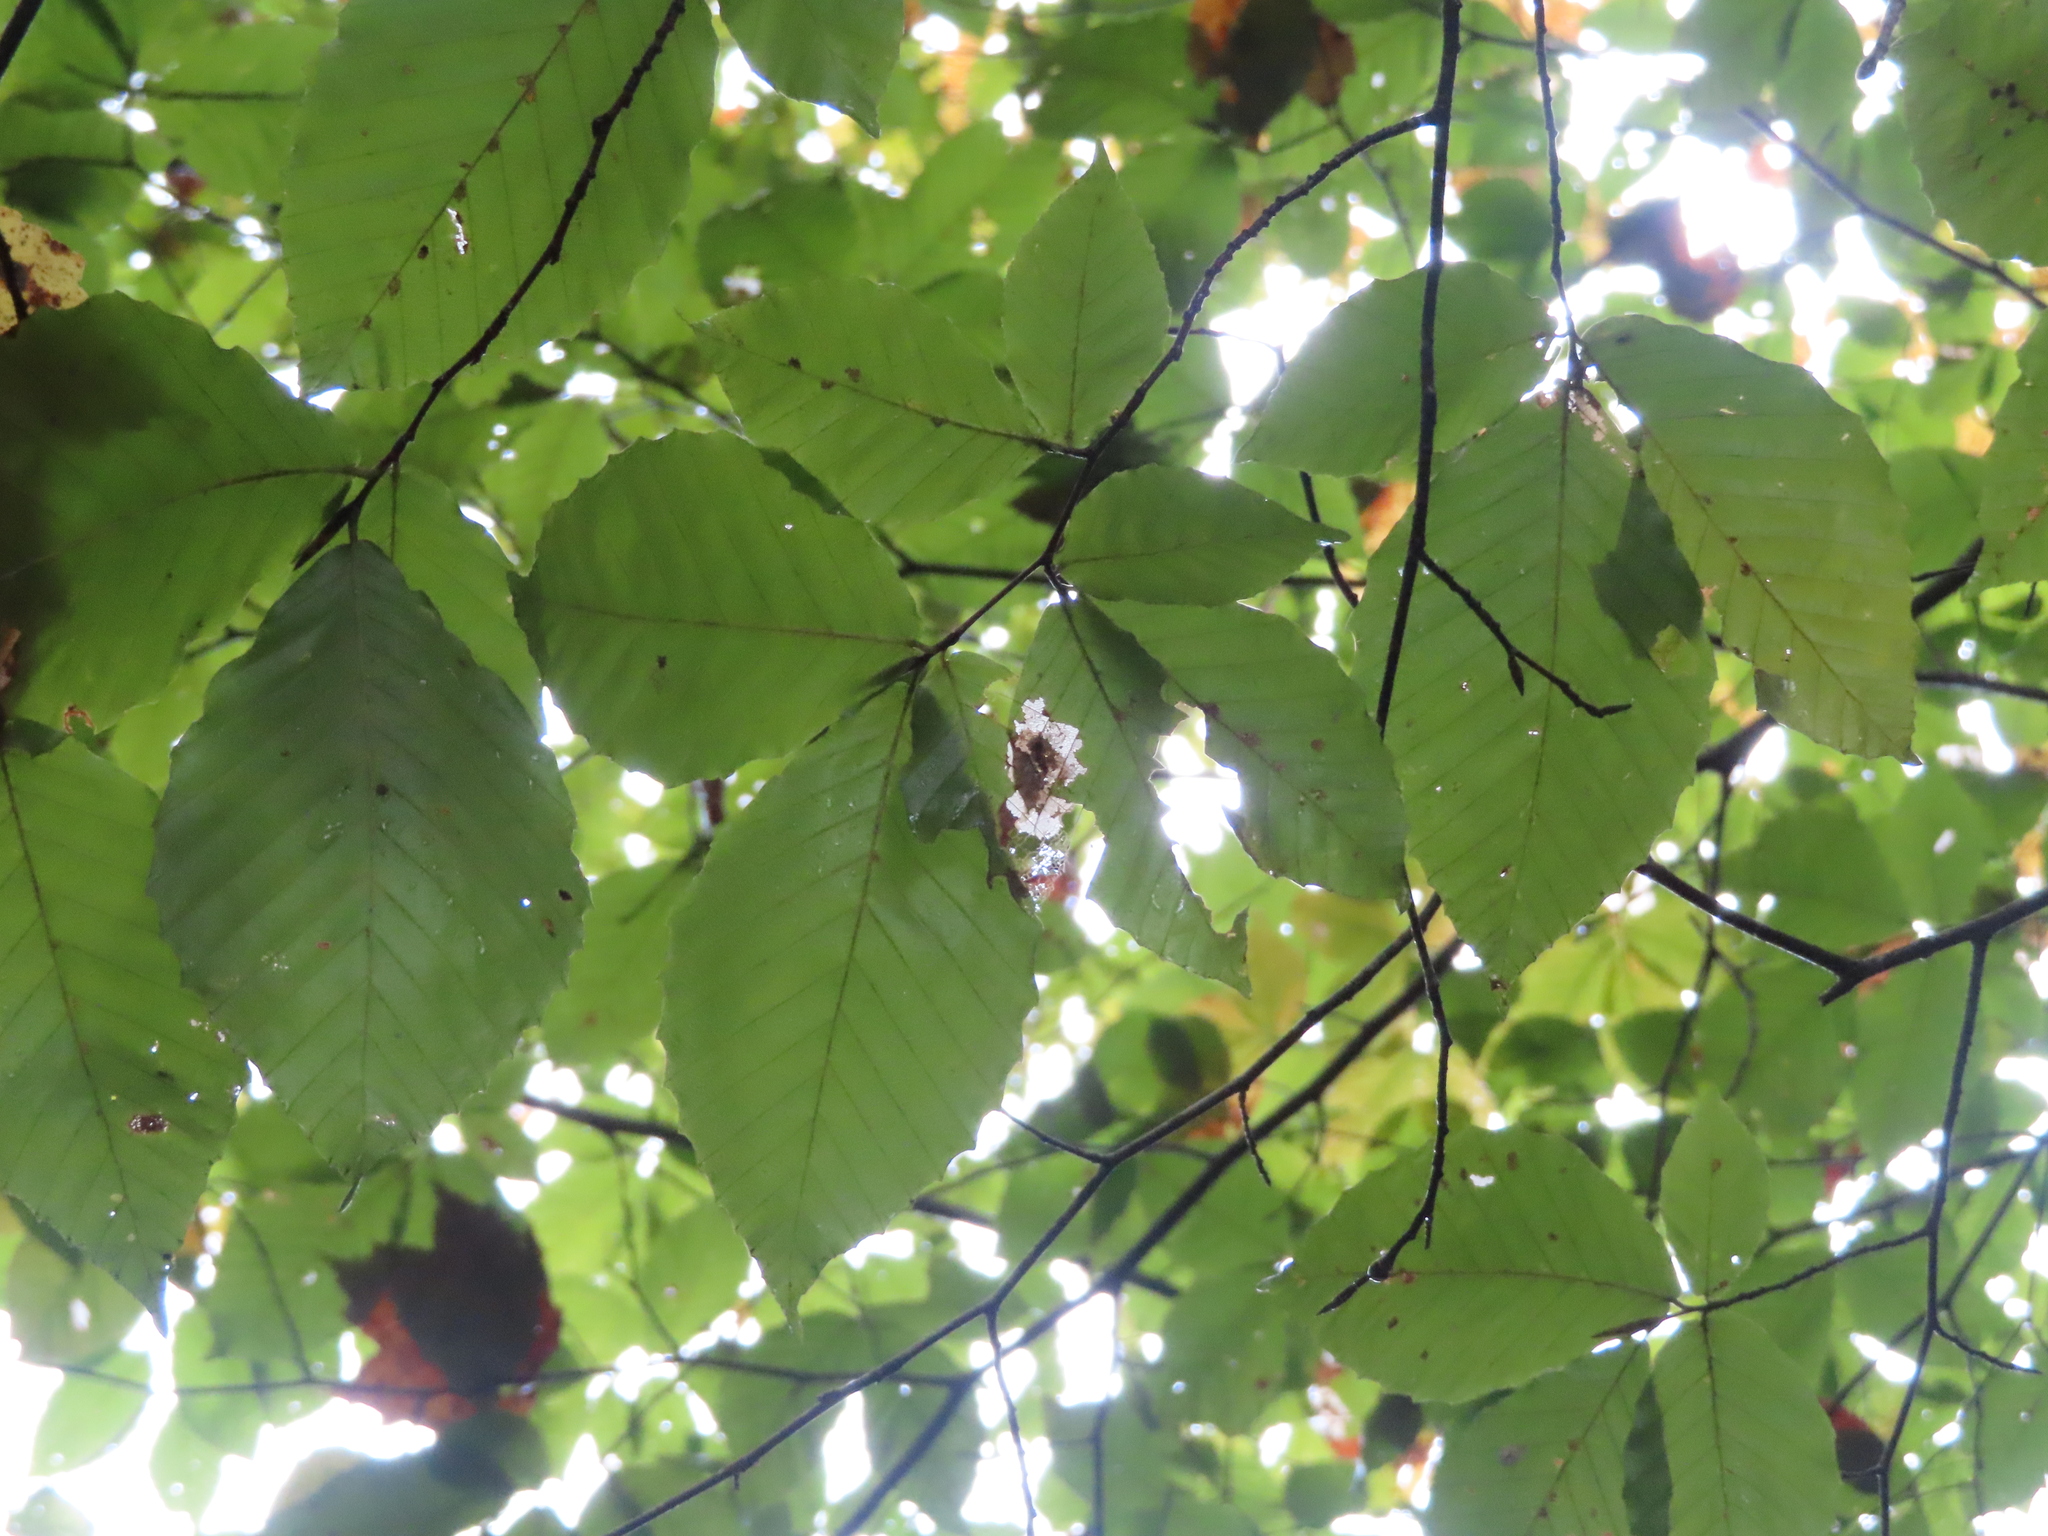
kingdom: Plantae
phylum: Tracheophyta
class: Magnoliopsida
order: Fagales
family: Fagaceae
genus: Fagus
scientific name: Fagus grandifolia
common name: American beech
